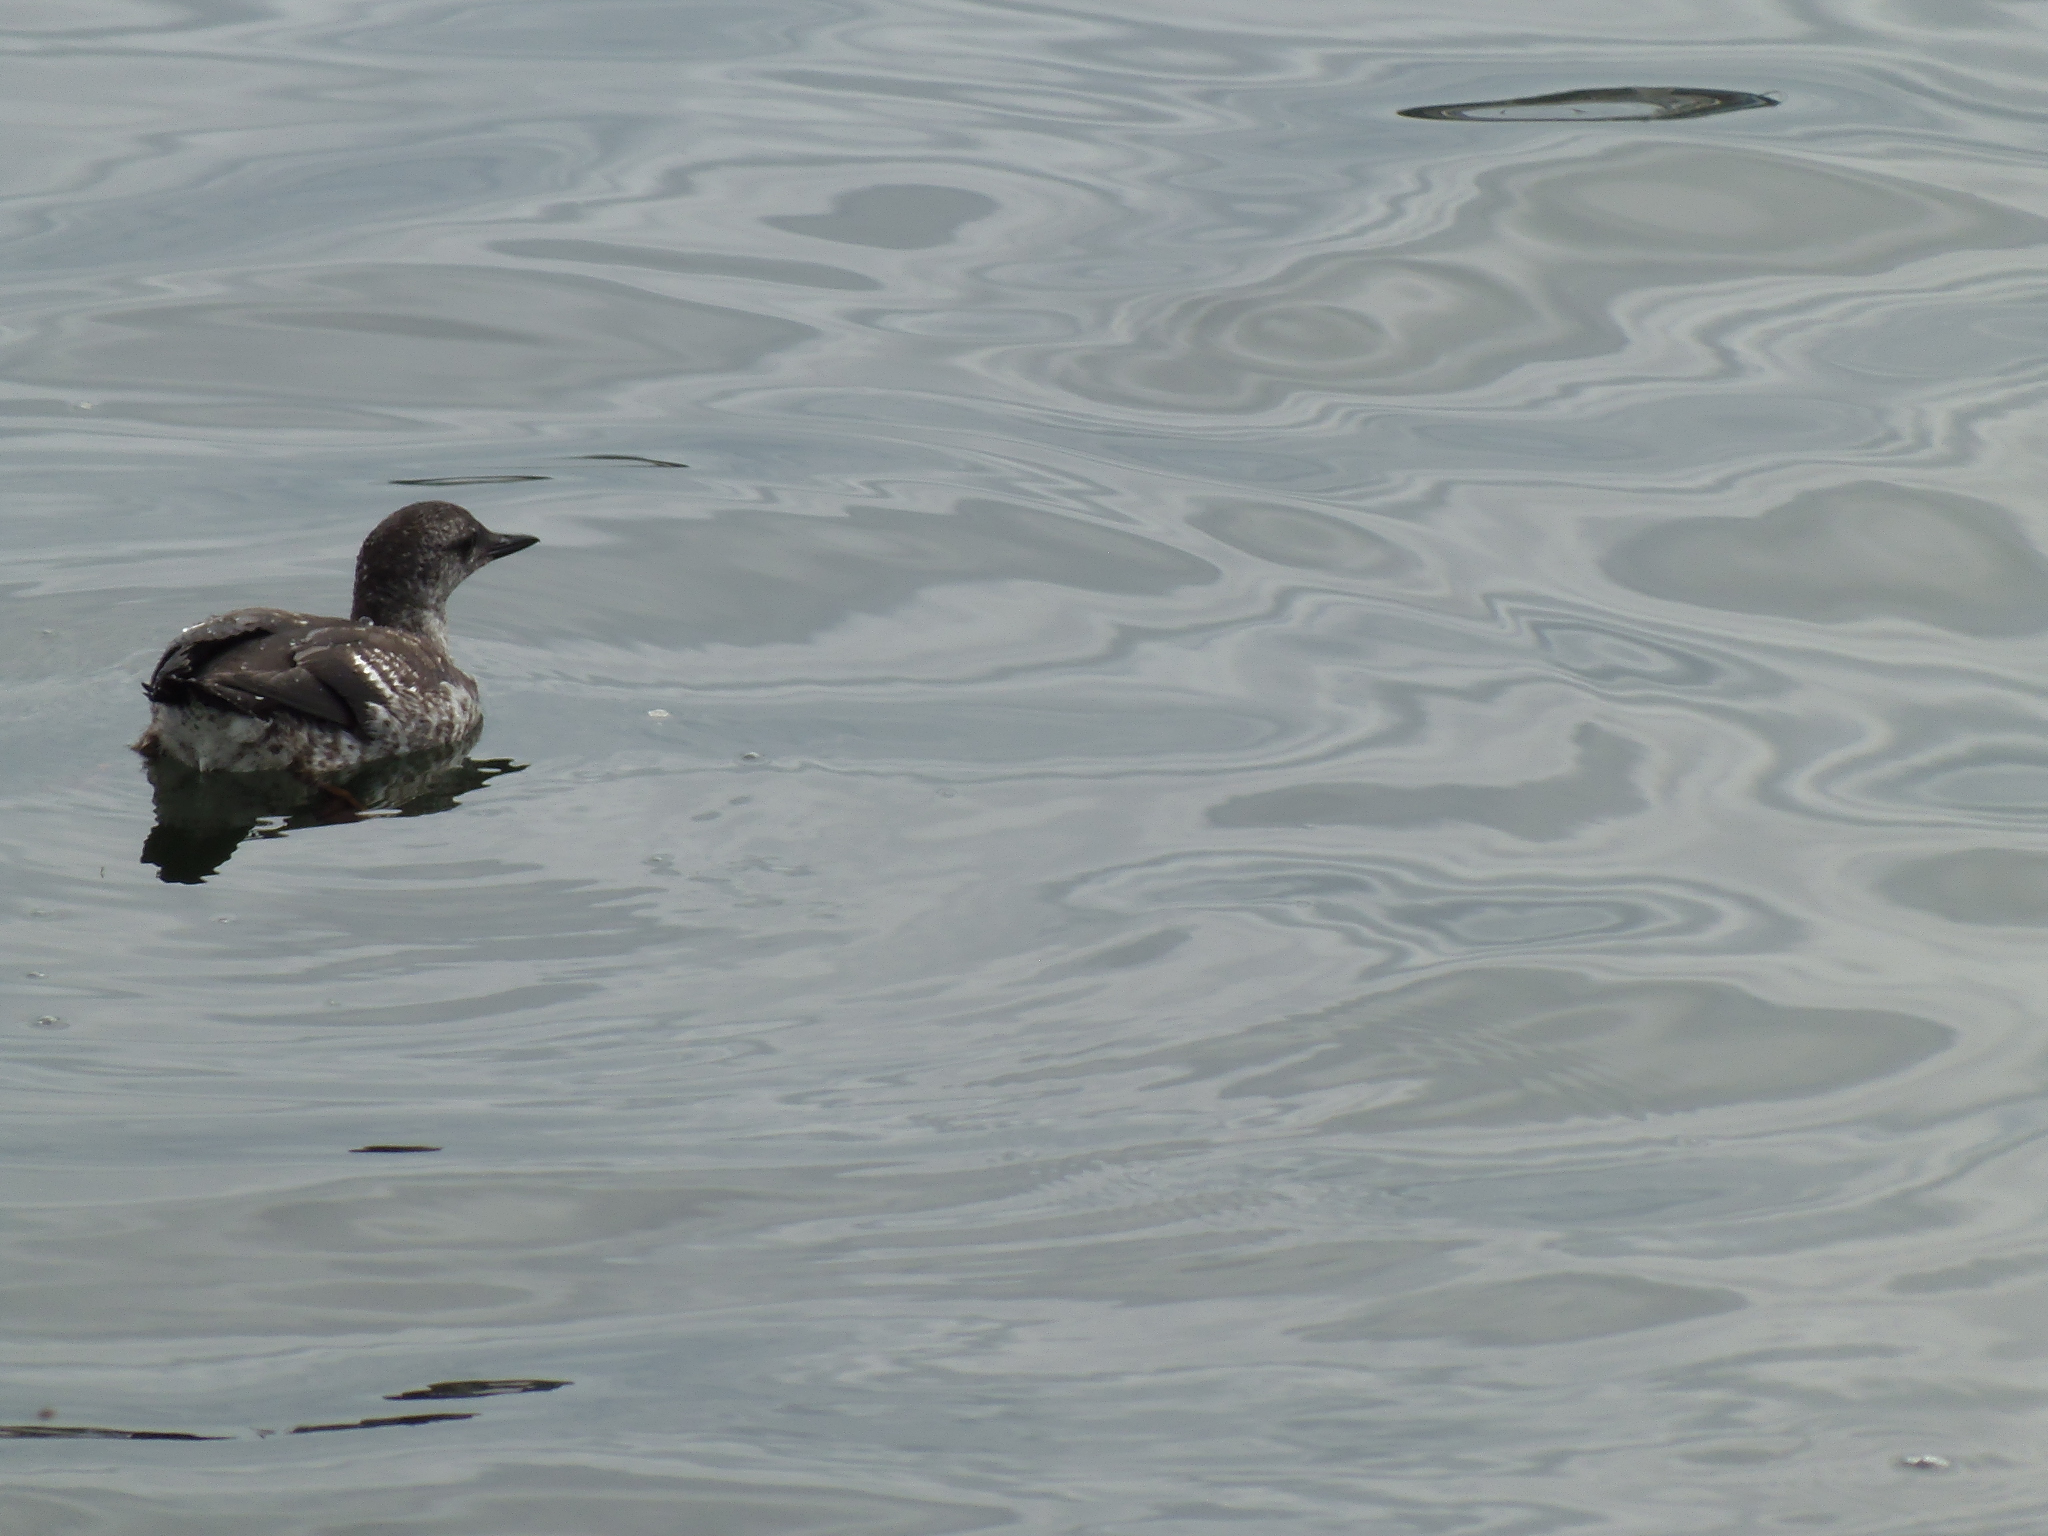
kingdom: Animalia
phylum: Chordata
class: Aves
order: Charadriiformes
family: Alcidae
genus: Cepphus
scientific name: Cepphus grylle
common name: Black guillemot
